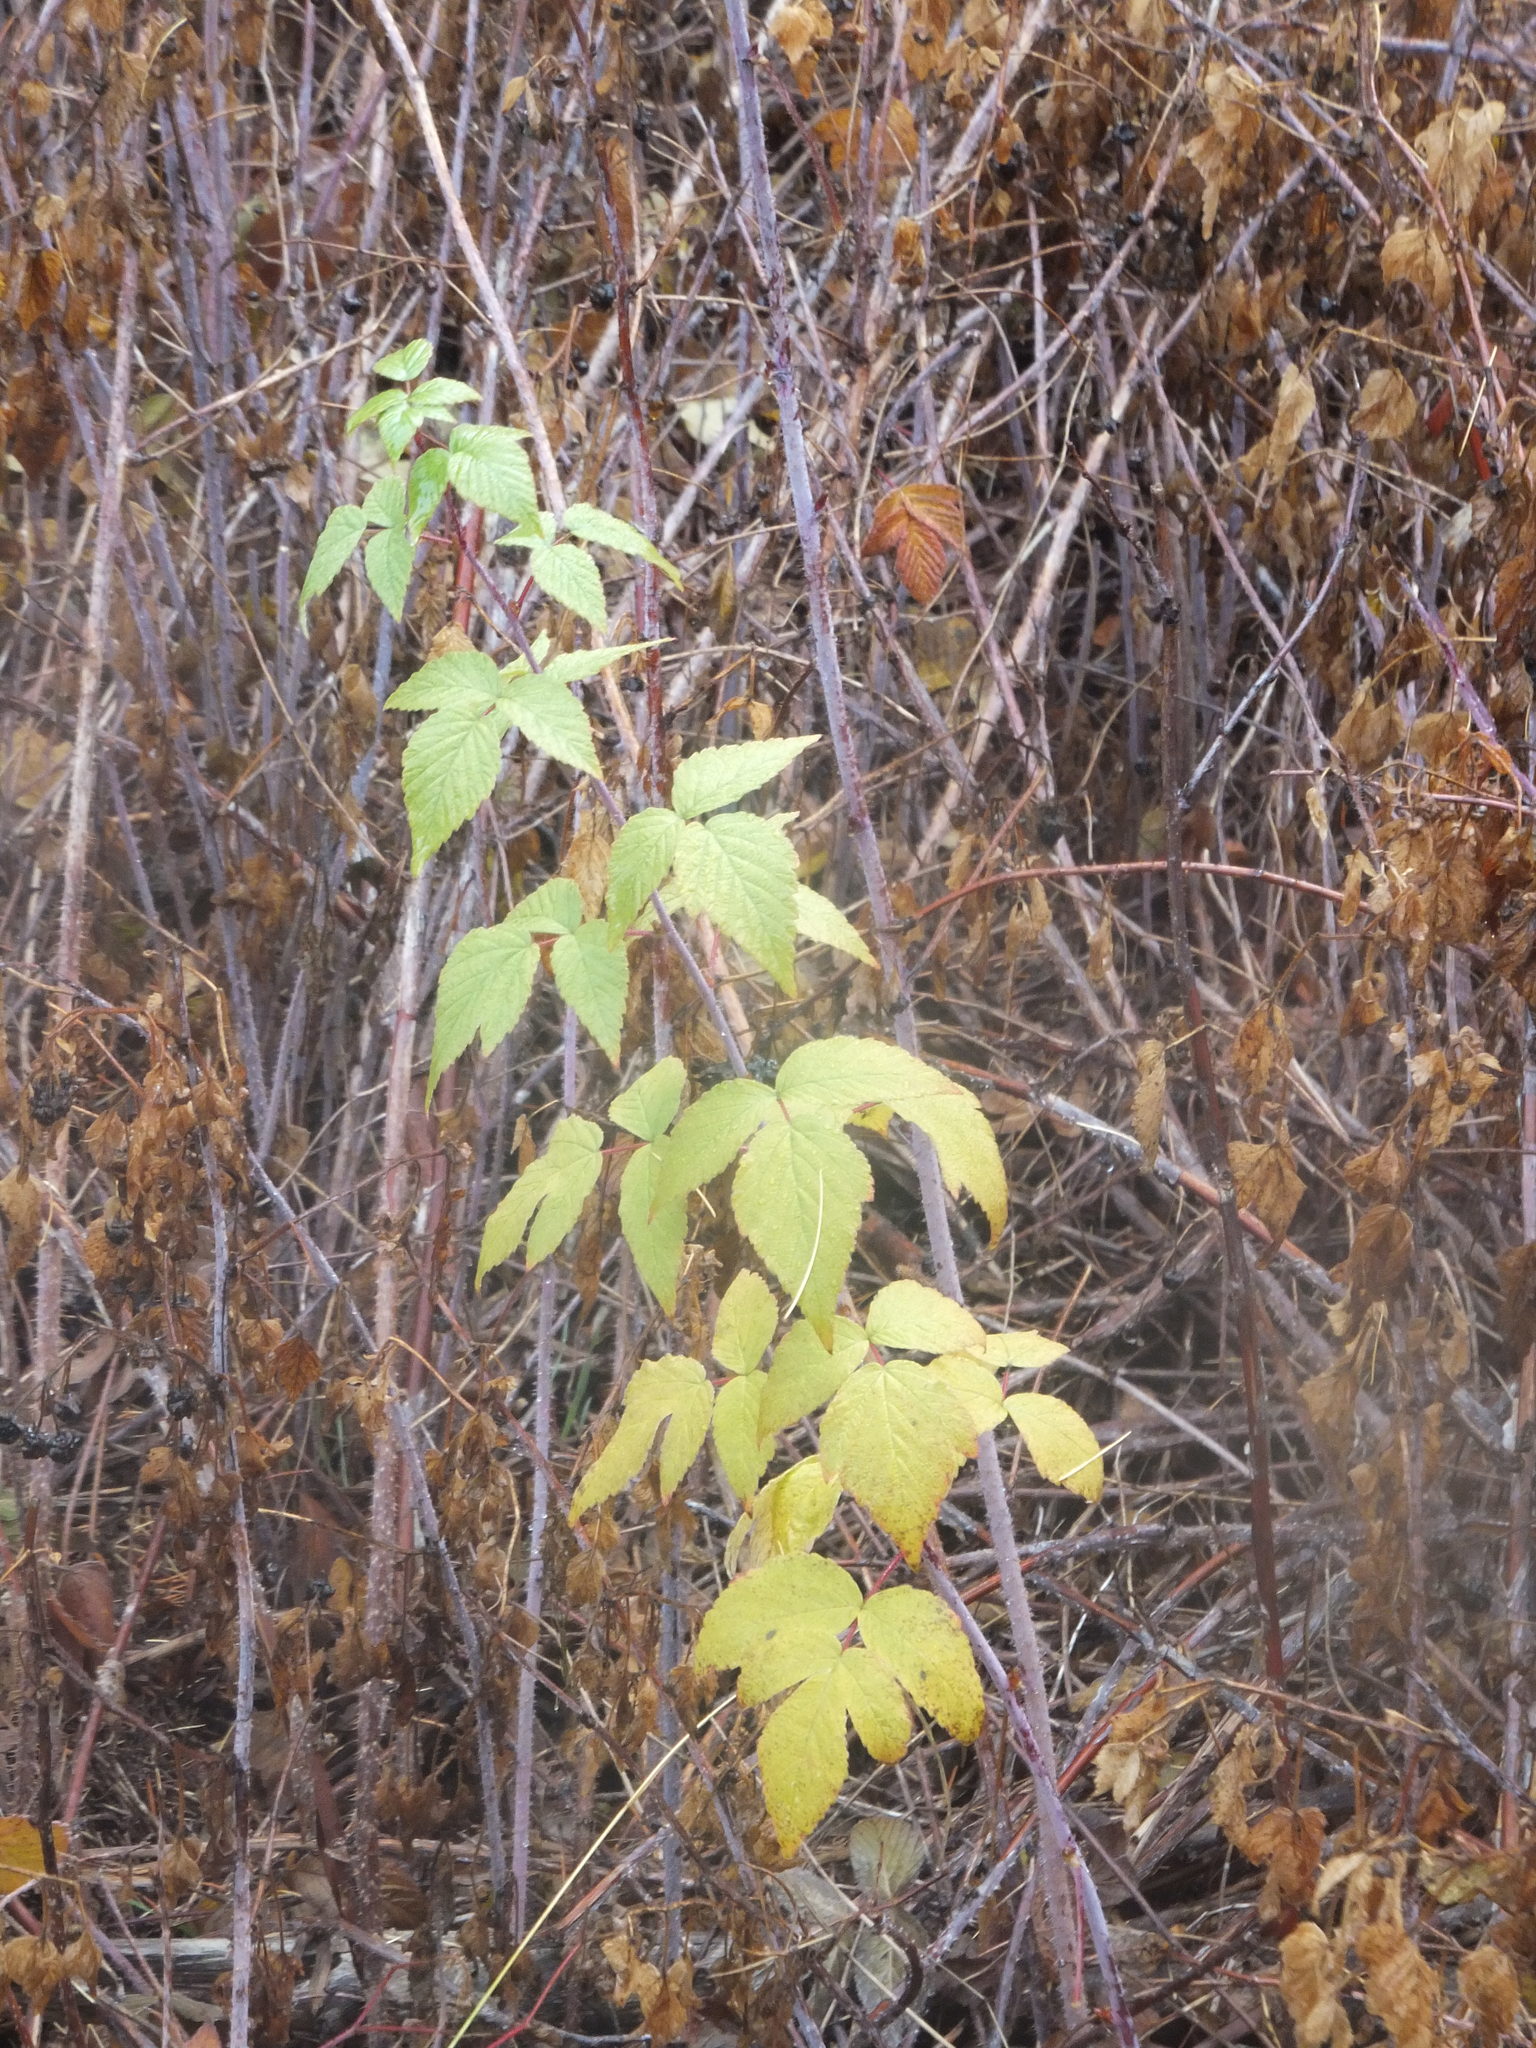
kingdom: Plantae
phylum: Tracheophyta
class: Magnoliopsida
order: Rosales
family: Rosaceae
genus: Rubus
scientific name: Rubus idaeus
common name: Raspberry
